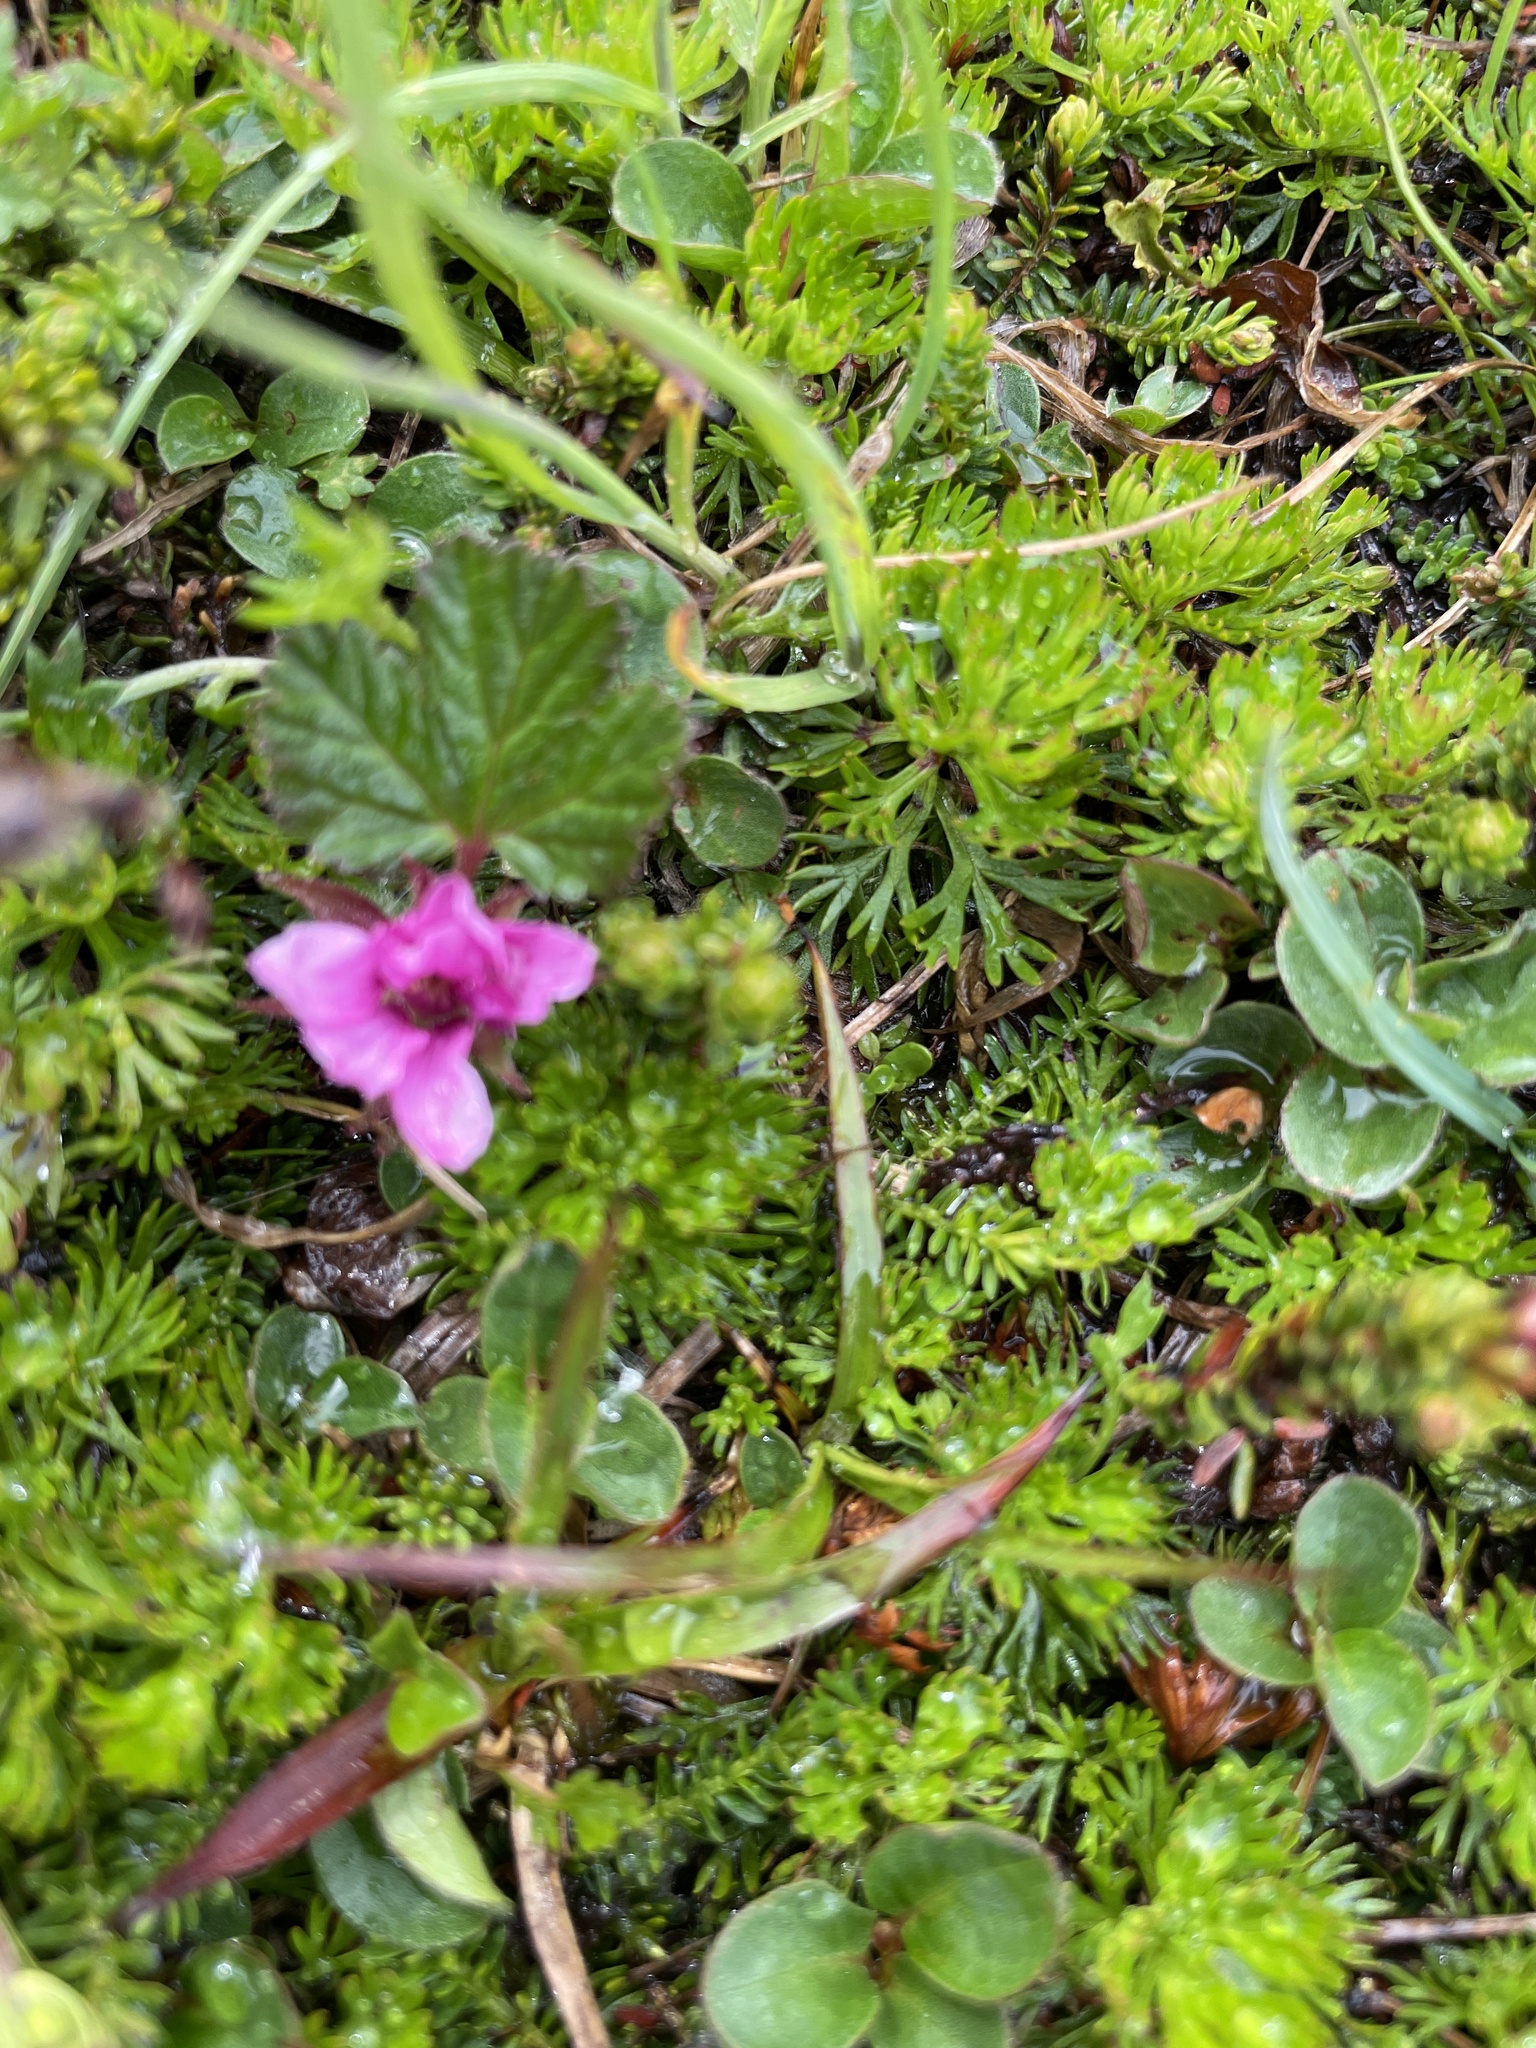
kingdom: Plantae
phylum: Tracheophyta
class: Magnoliopsida
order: Rosales
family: Rosaceae
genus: Rubus
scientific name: Rubus arcticus
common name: Arctic bramble
